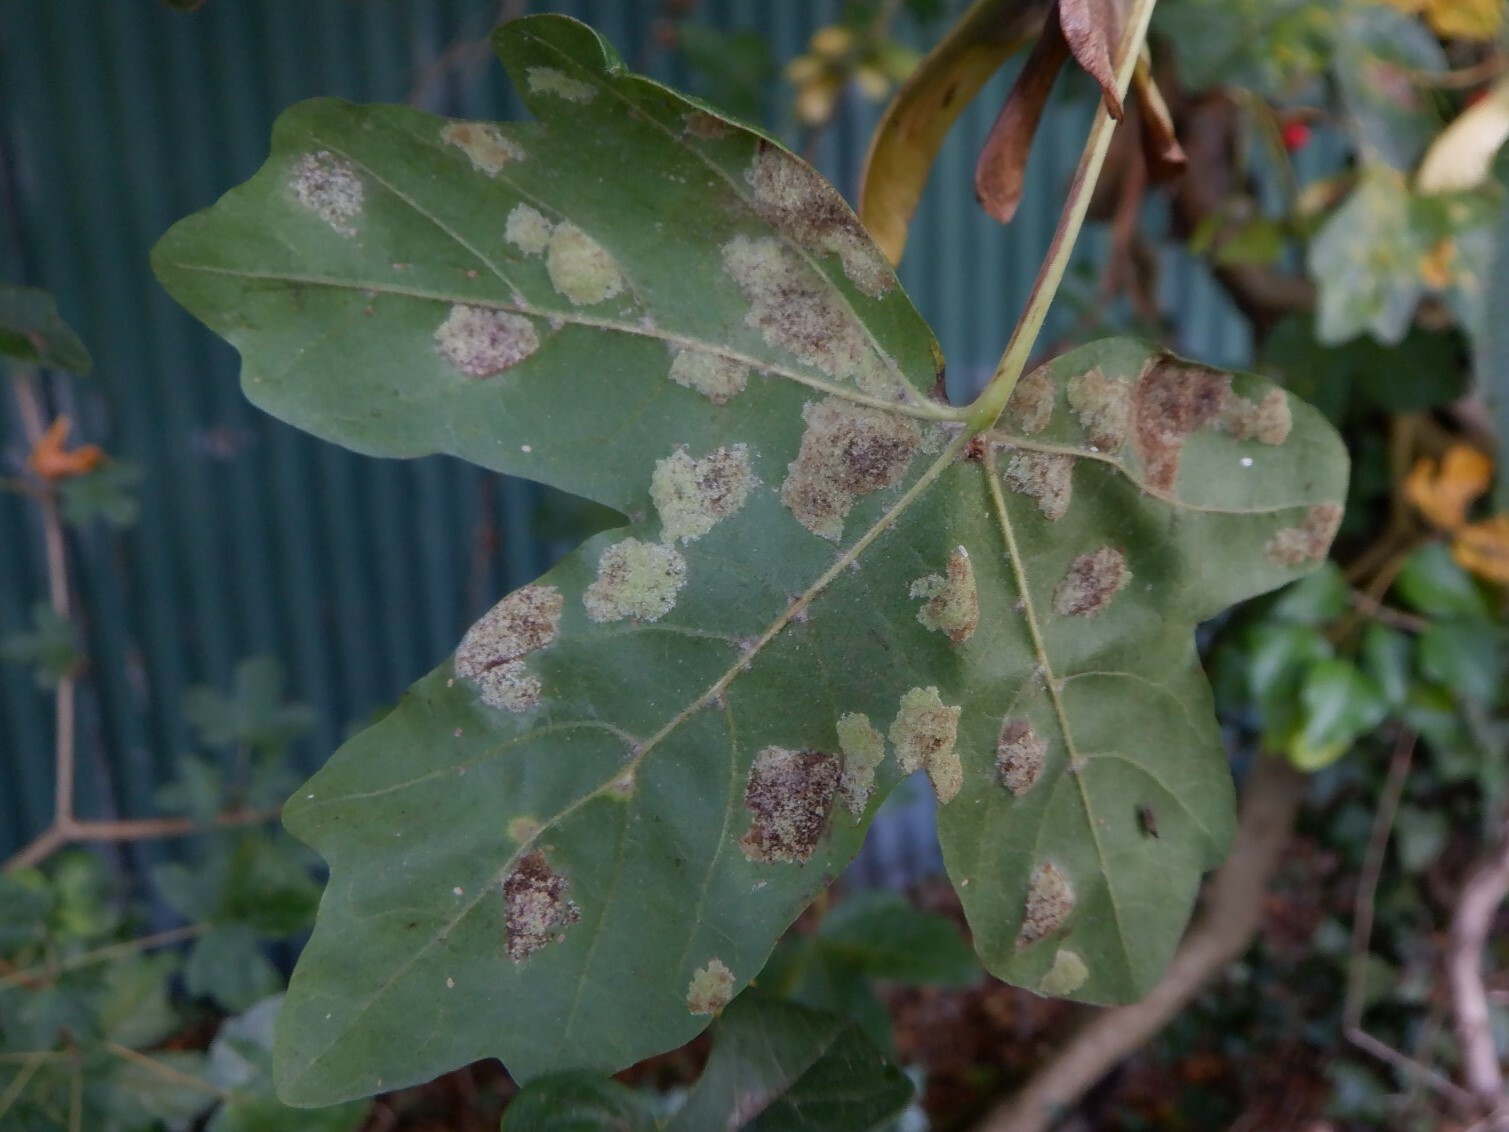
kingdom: Animalia
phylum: Arthropoda
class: Arachnida
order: Trombidiformes
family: Eriophyidae
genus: Aceria
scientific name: Aceria pseudoplatani
